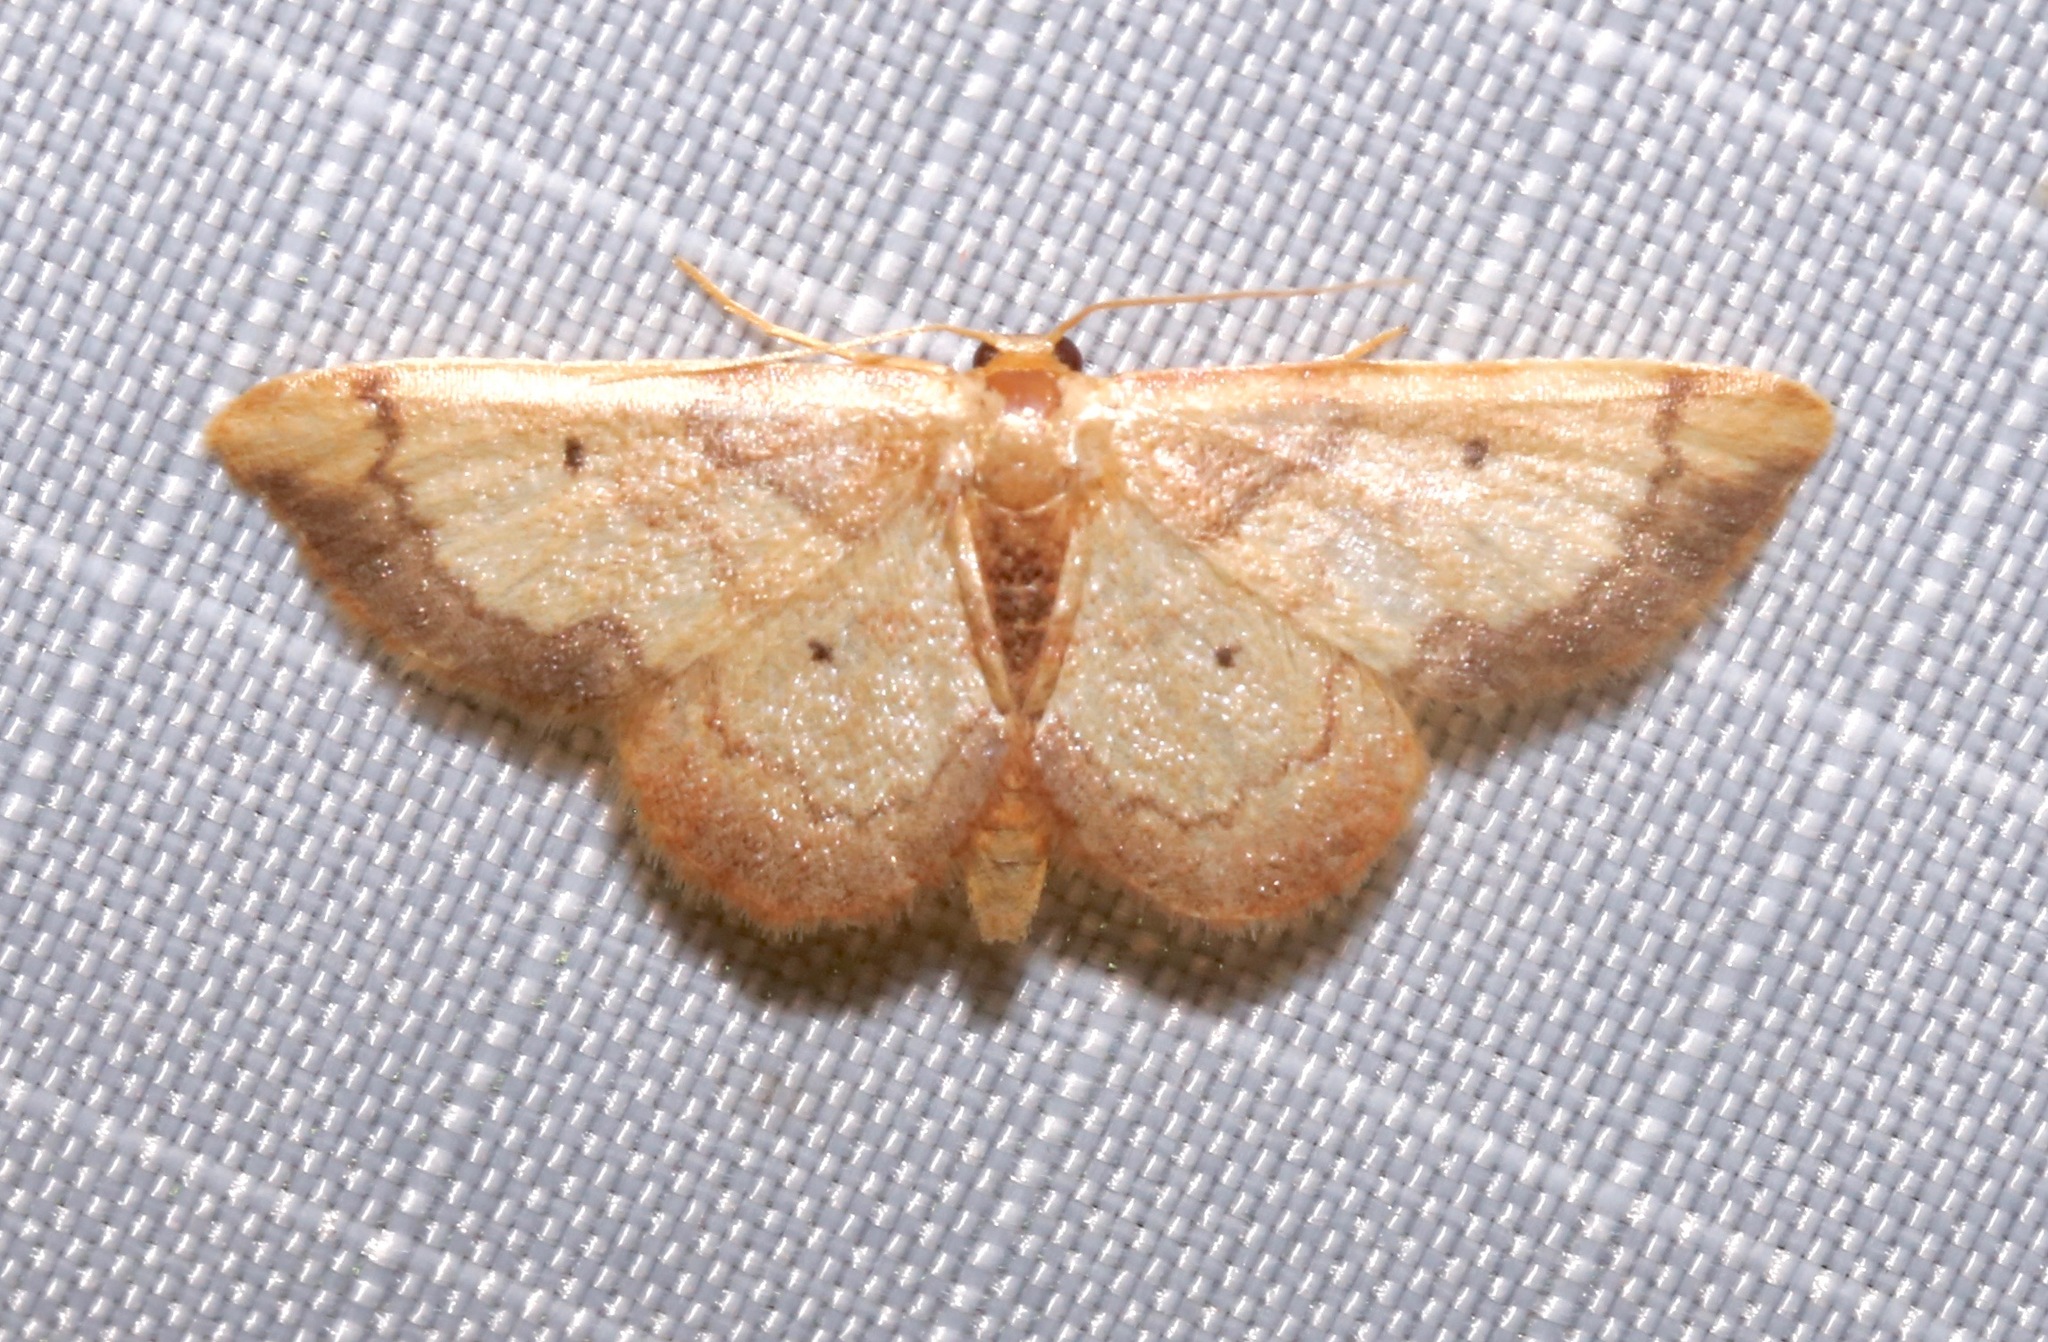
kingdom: Animalia
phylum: Arthropoda
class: Insecta
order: Lepidoptera
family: Geometridae
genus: Idaea
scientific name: Idaea demissaria
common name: Red-bordered wave
